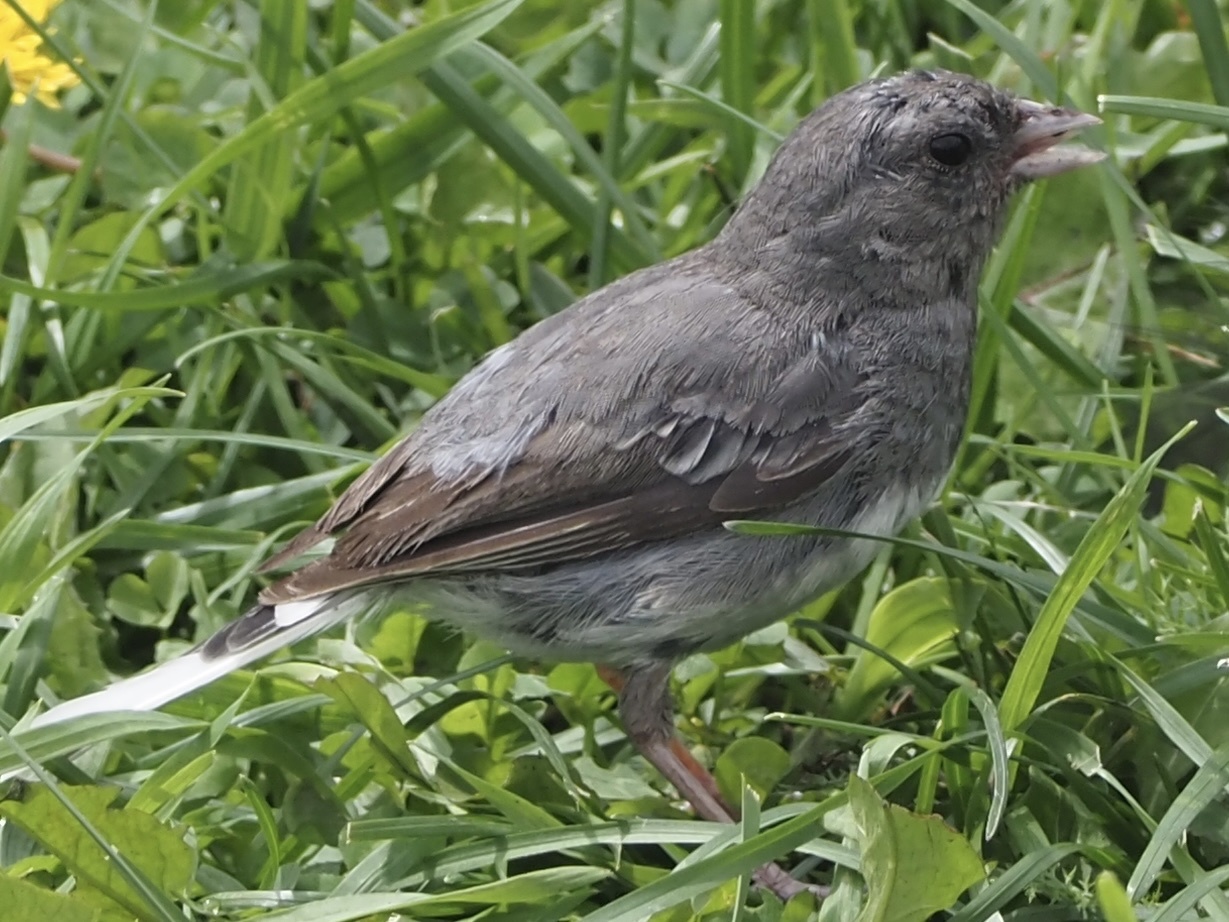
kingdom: Animalia
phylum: Chordata
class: Aves
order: Passeriformes
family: Passerellidae
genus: Junco
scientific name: Junco hyemalis
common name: Dark-eyed junco
